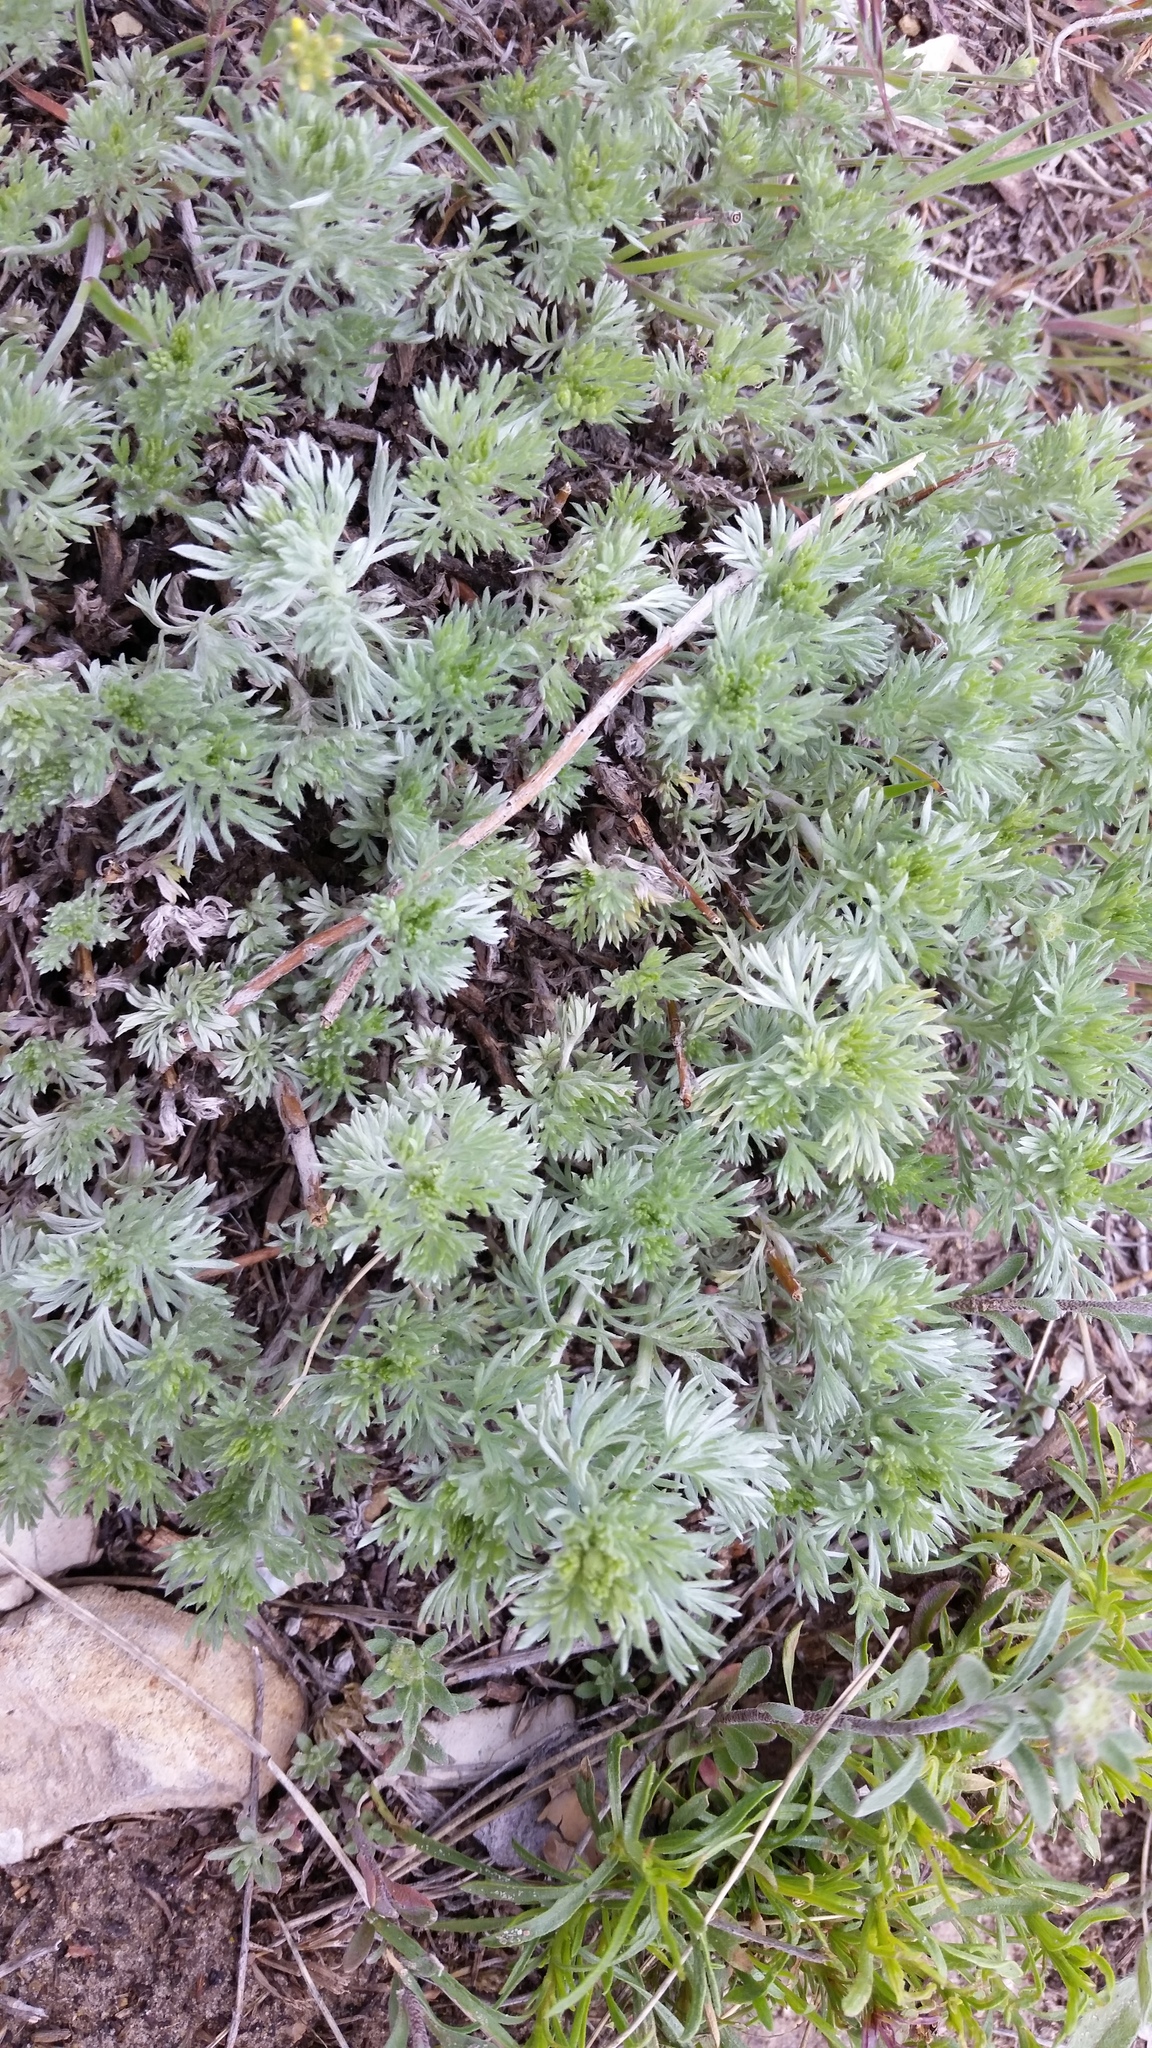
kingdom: Plantae
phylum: Tracheophyta
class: Magnoliopsida
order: Asterales
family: Asteraceae
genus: Artemisia
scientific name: Artemisia frigida
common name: Prairie sagewort
